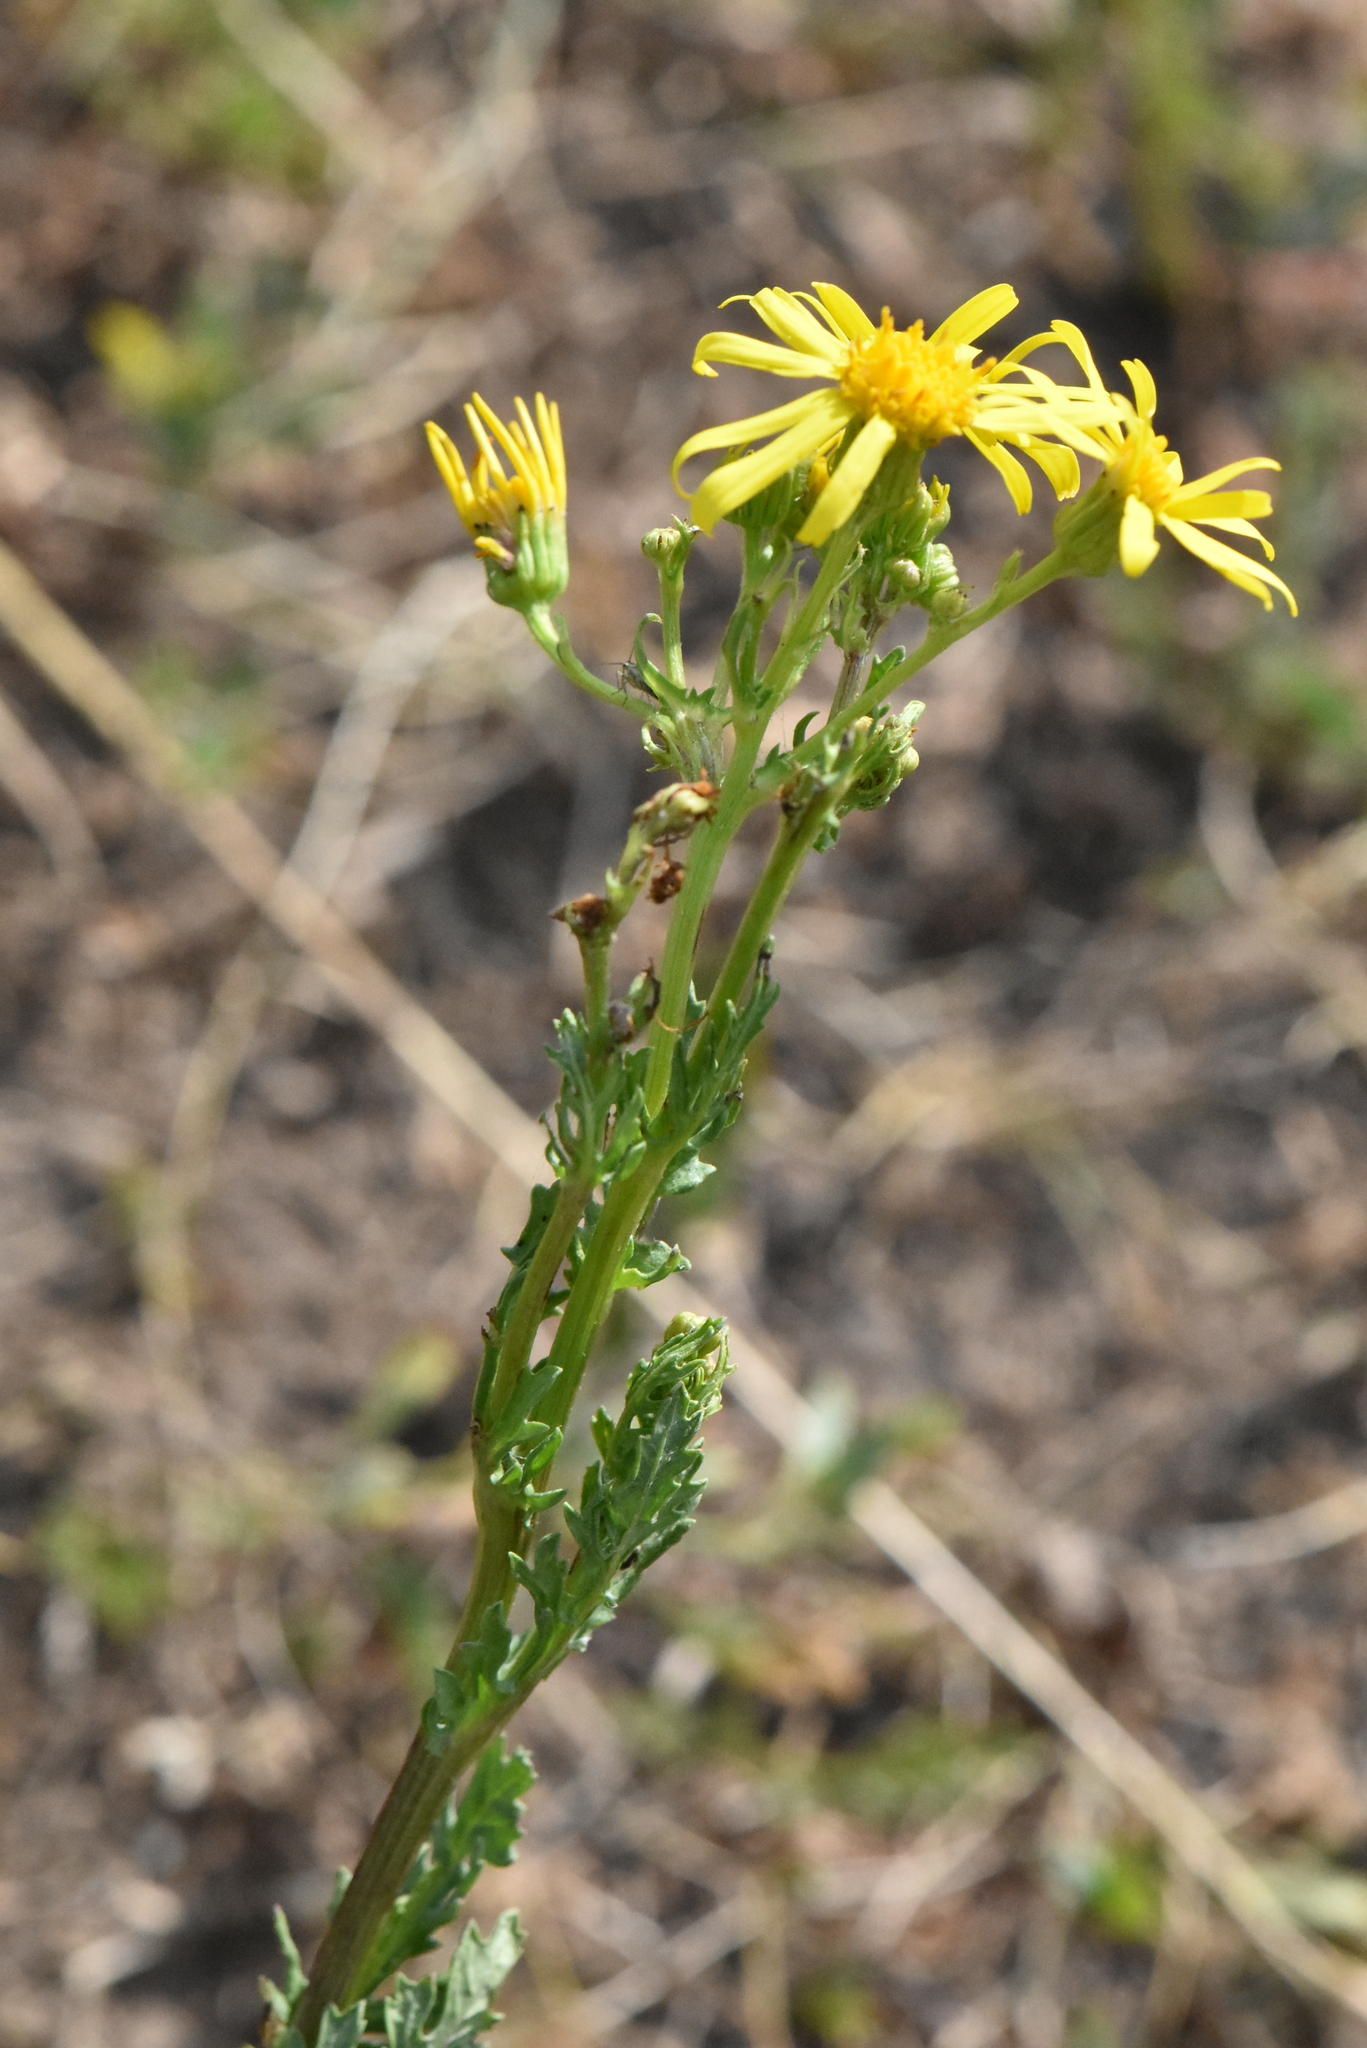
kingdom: Plantae
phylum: Tracheophyta
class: Magnoliopsida
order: Asterales
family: Asteraceae
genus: Jacobaea
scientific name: Jacobaea vulgaris
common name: Stinking willie
